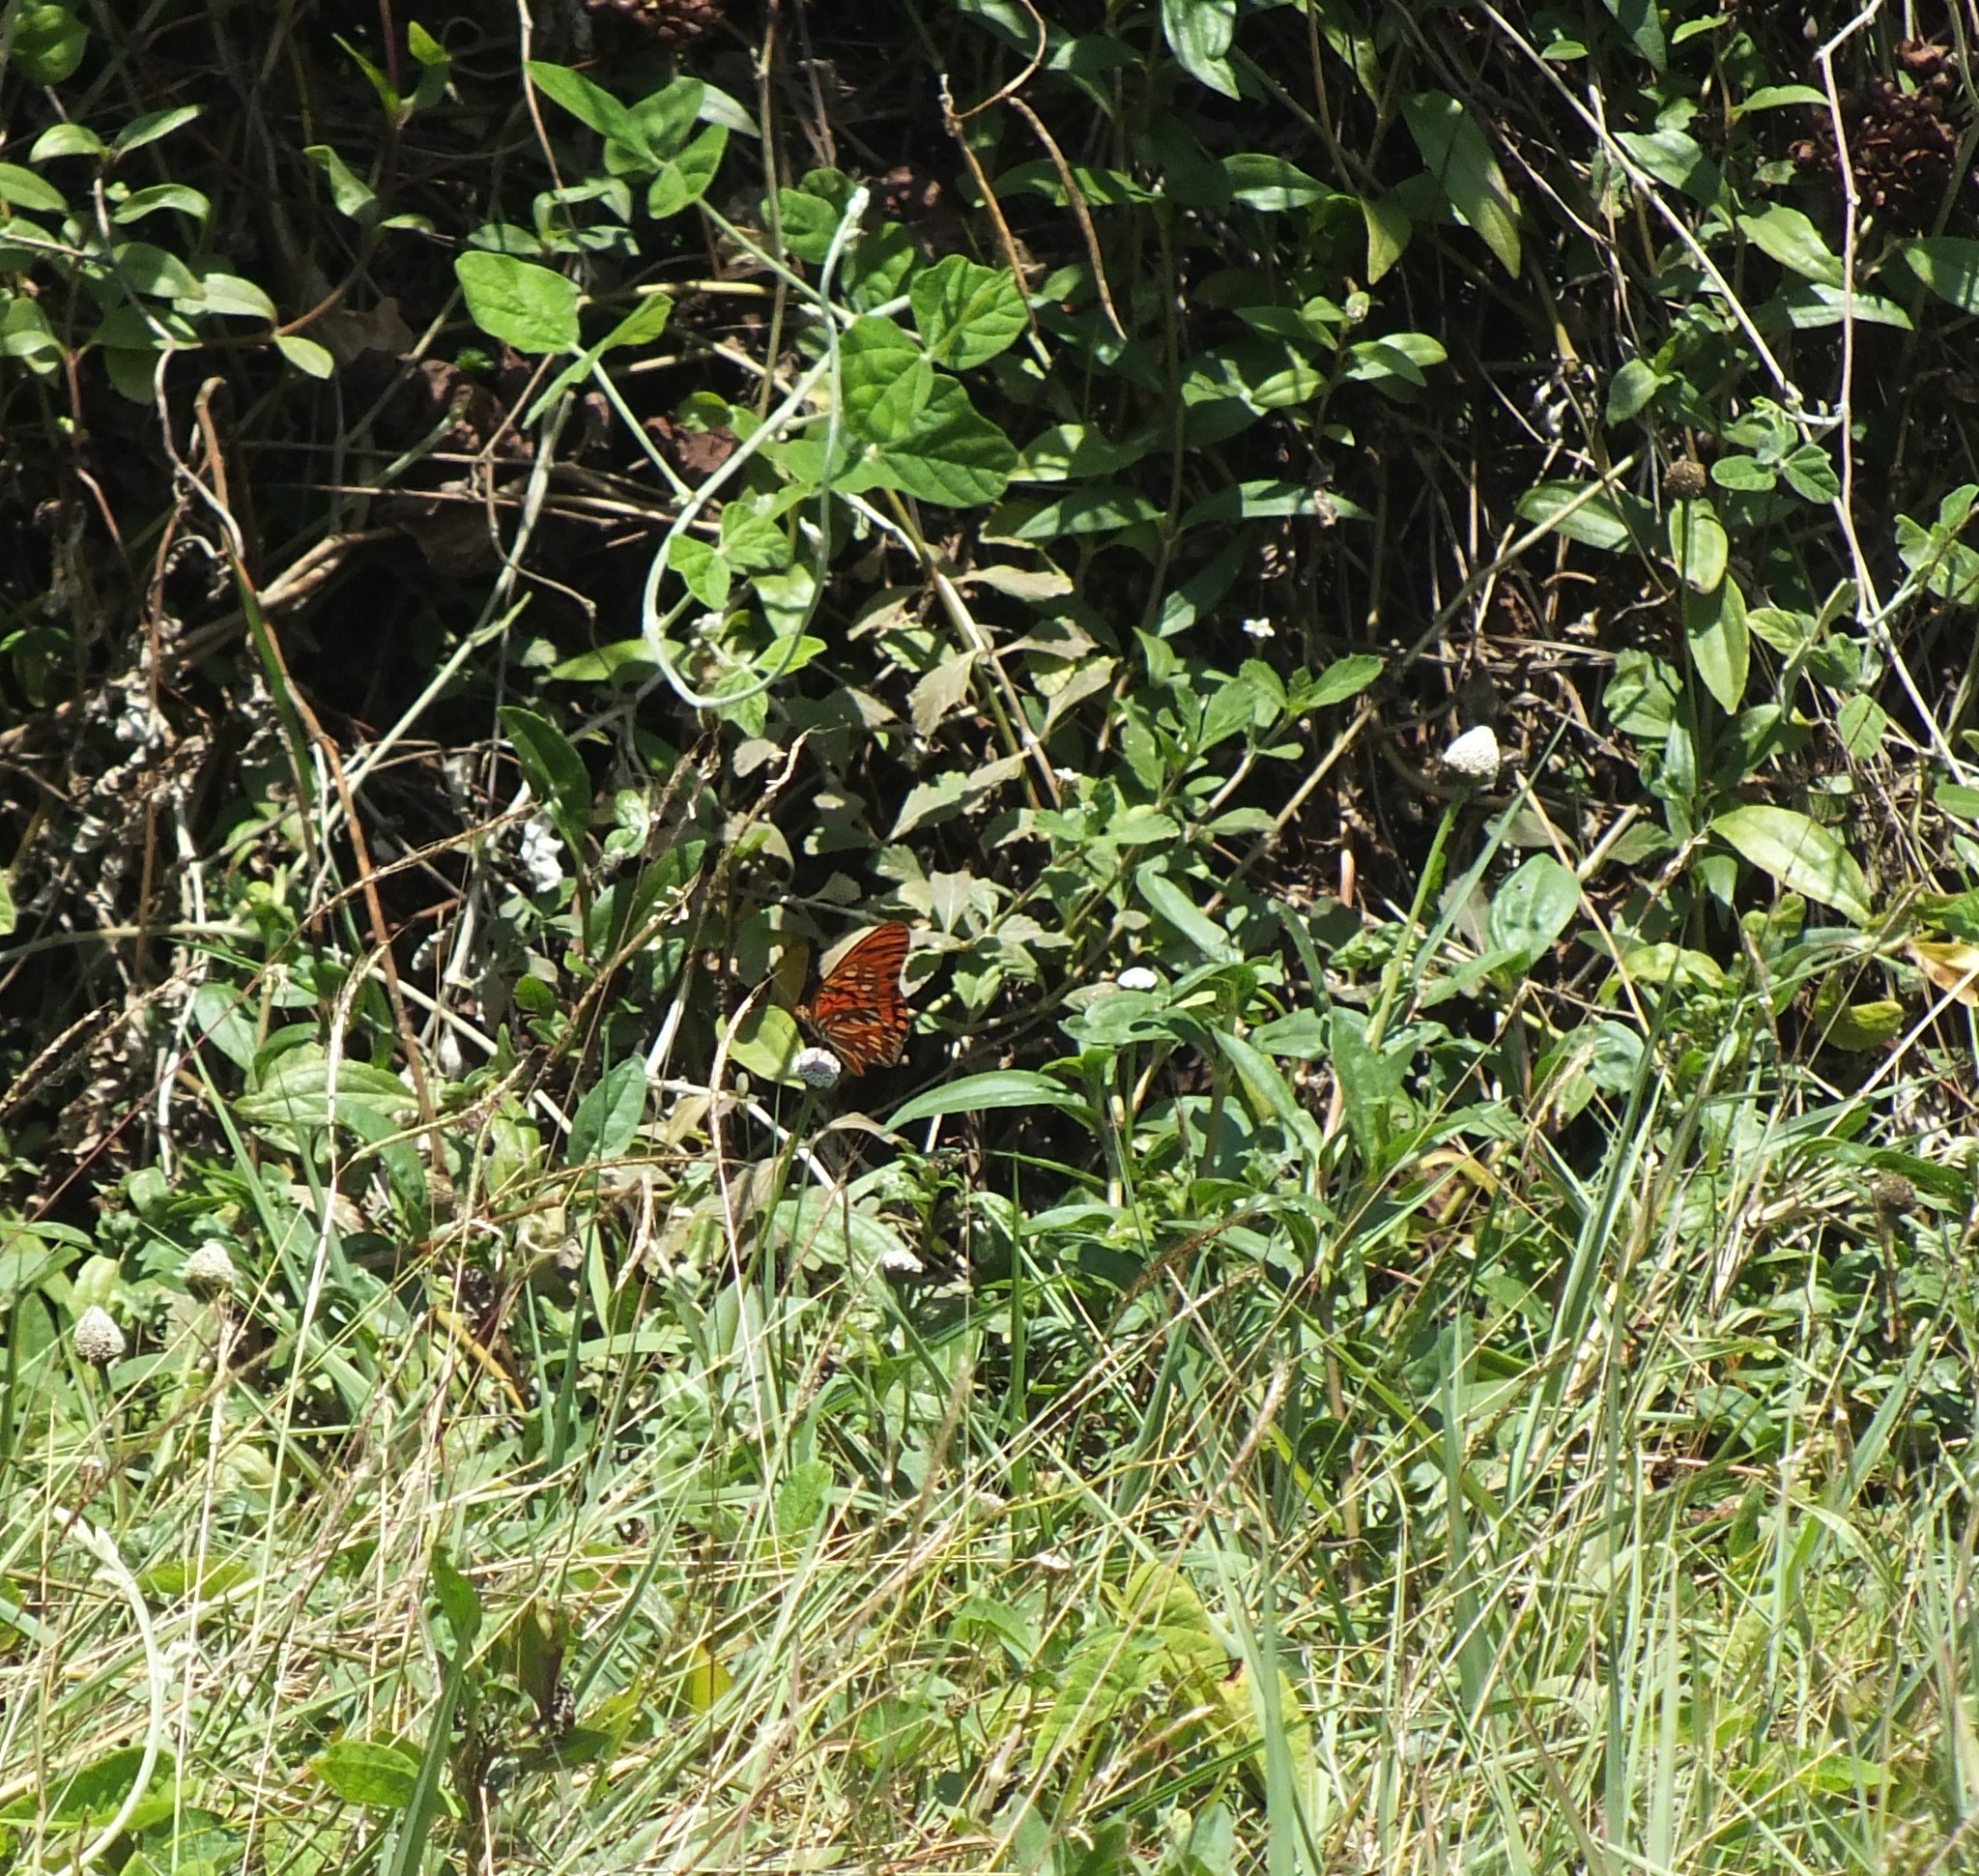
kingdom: Animalia
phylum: Arthropoda
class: Insecta
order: Lepidoptera
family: Nymphalidae
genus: Dione
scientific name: Dione vanillae
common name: Gulf fritillary
